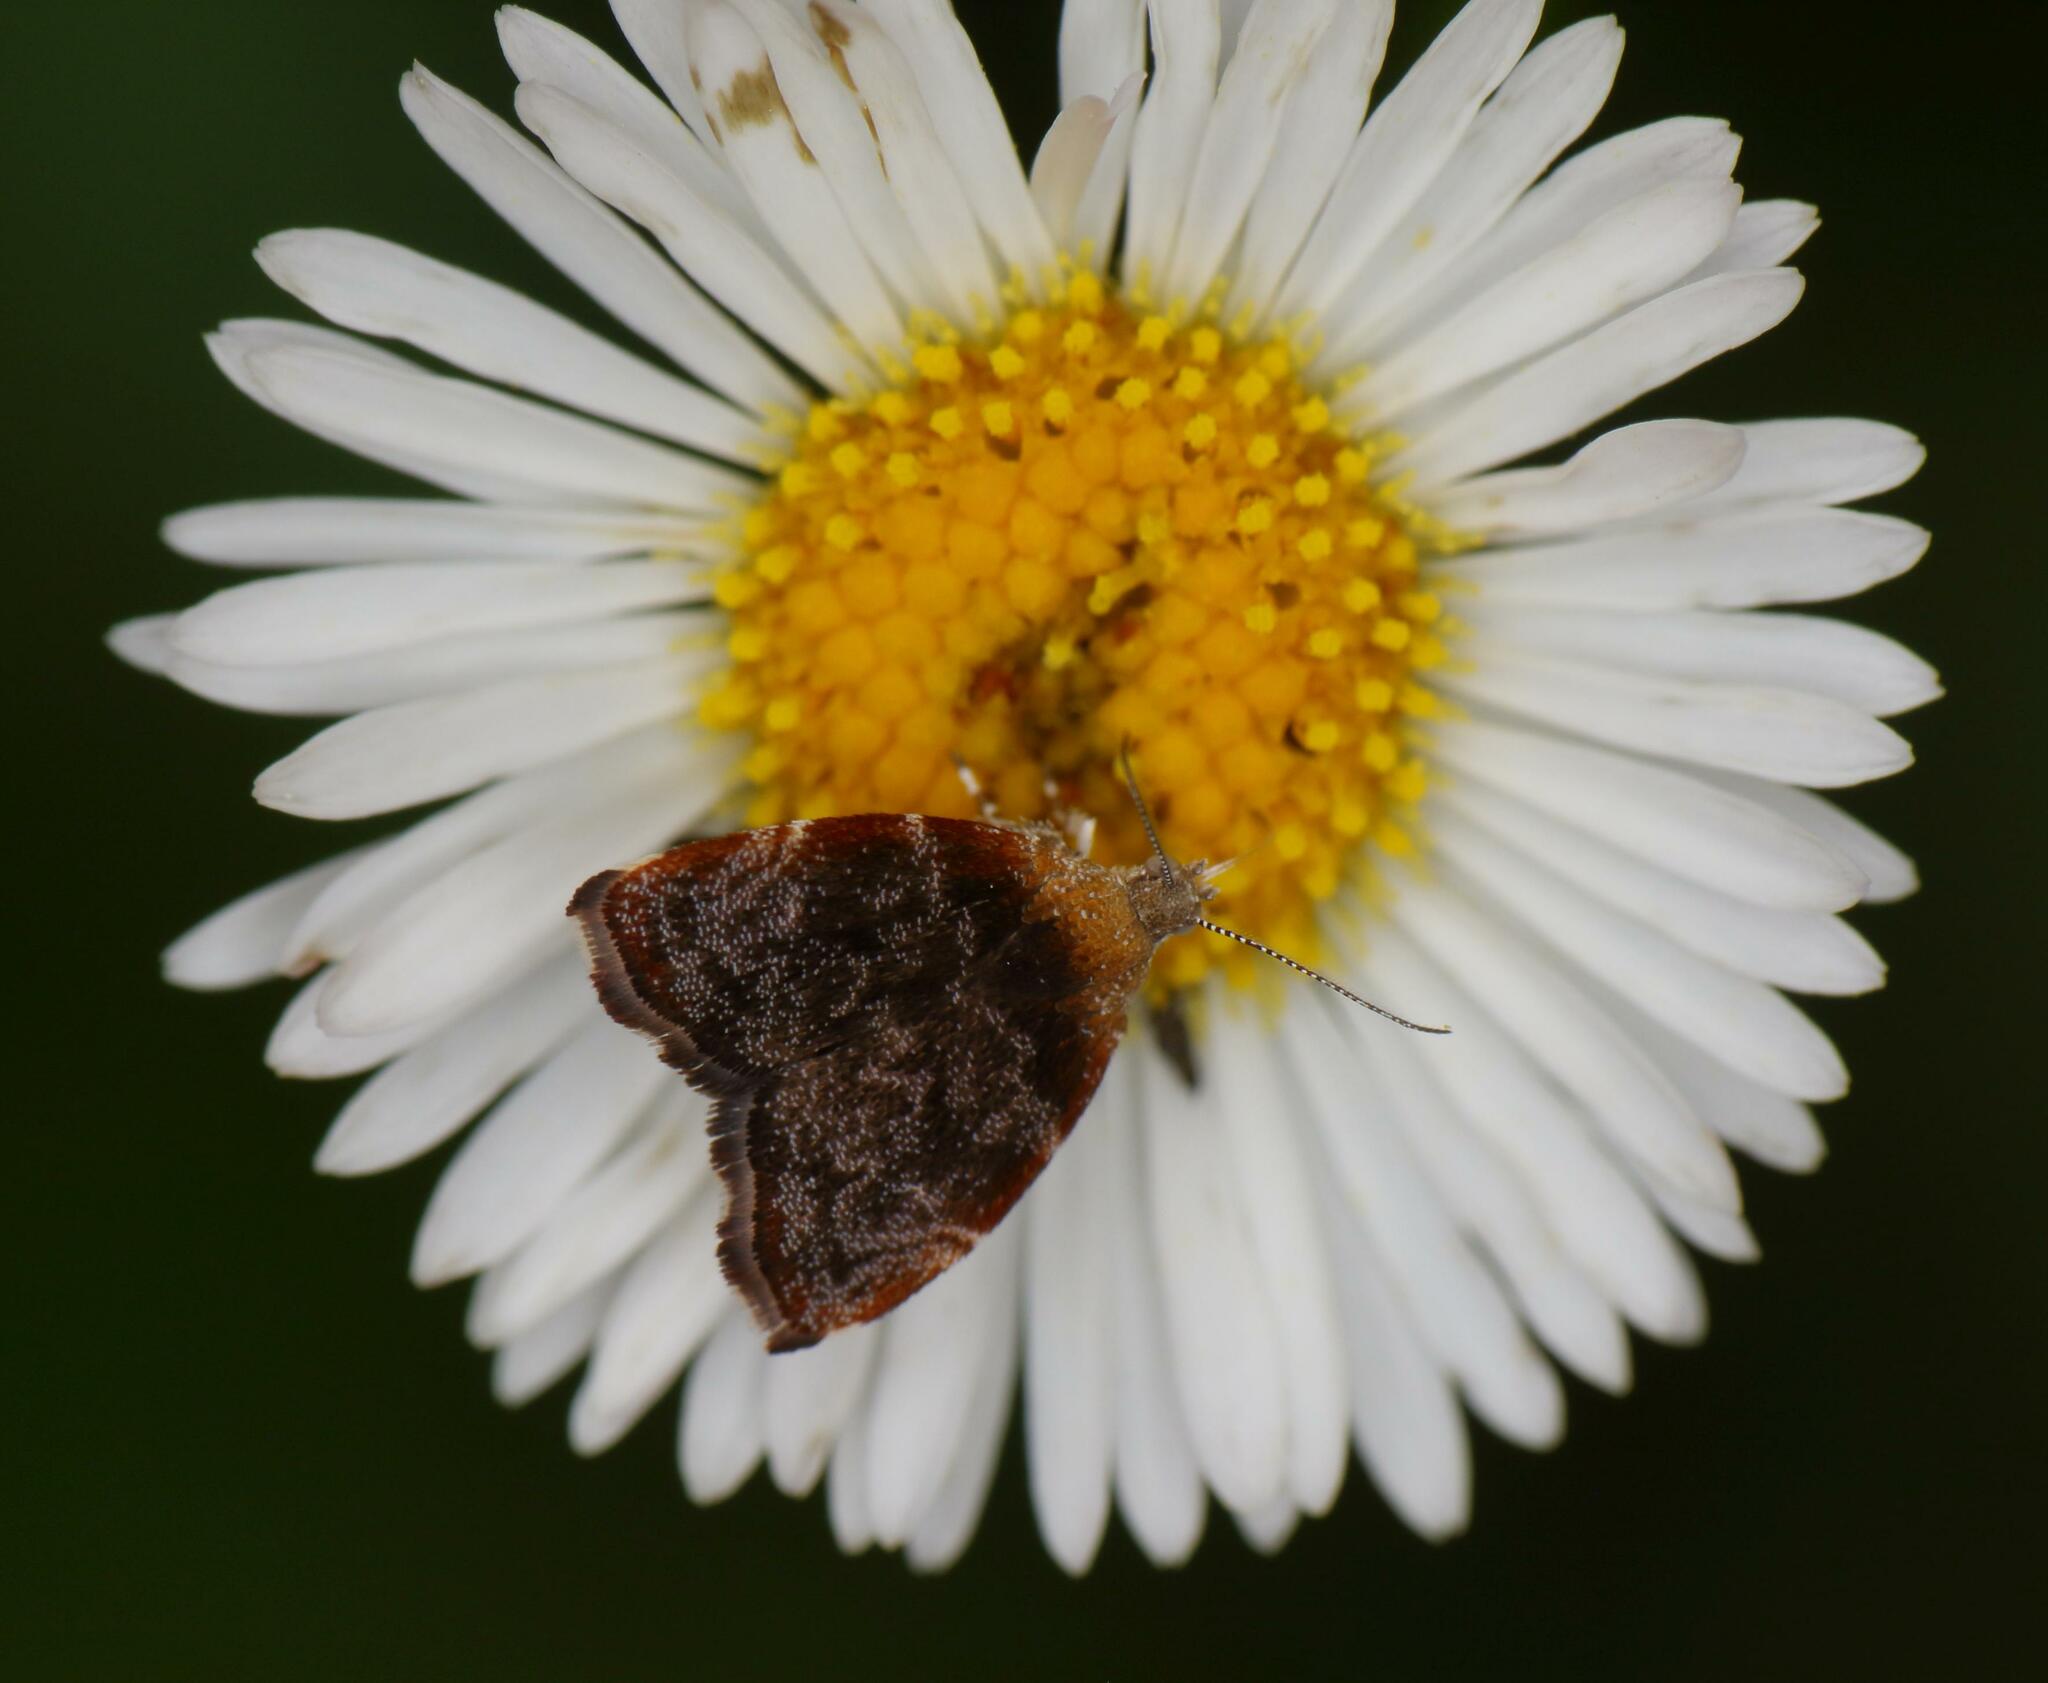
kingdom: Animalia
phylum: Arthropoda
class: Insecta
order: Lepidoptera
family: Choreutidae
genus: Choreutis
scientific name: Choreutis aegyptiaca
